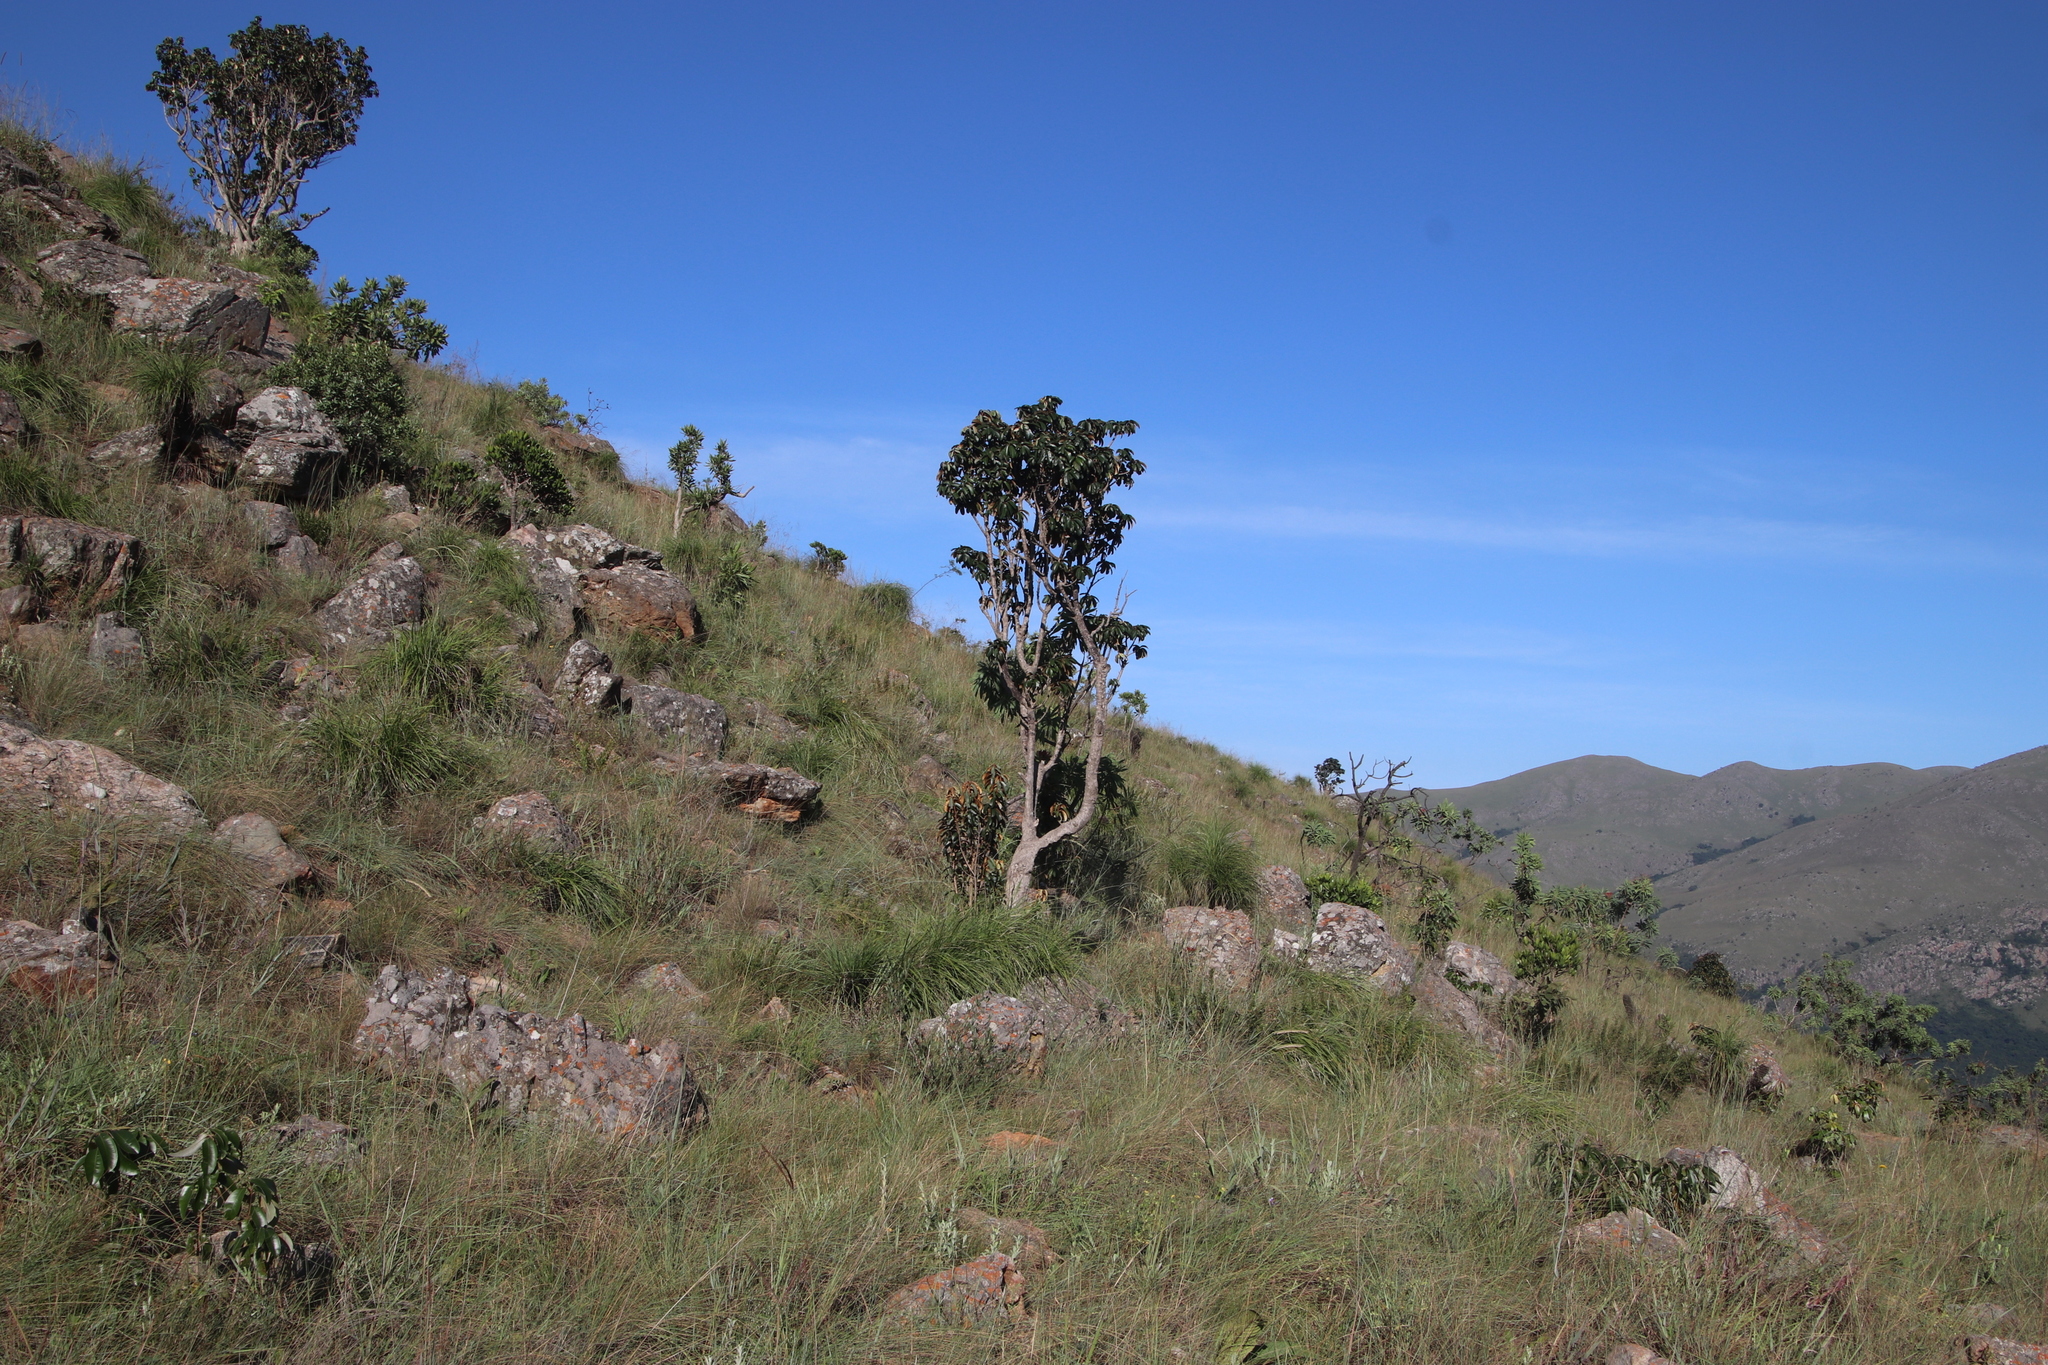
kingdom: Plantae
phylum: Tracheophyta
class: Magnoliopsida
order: Ericales
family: Sapotaceae
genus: Englerophytum
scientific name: Englerophytum magalismontanum
